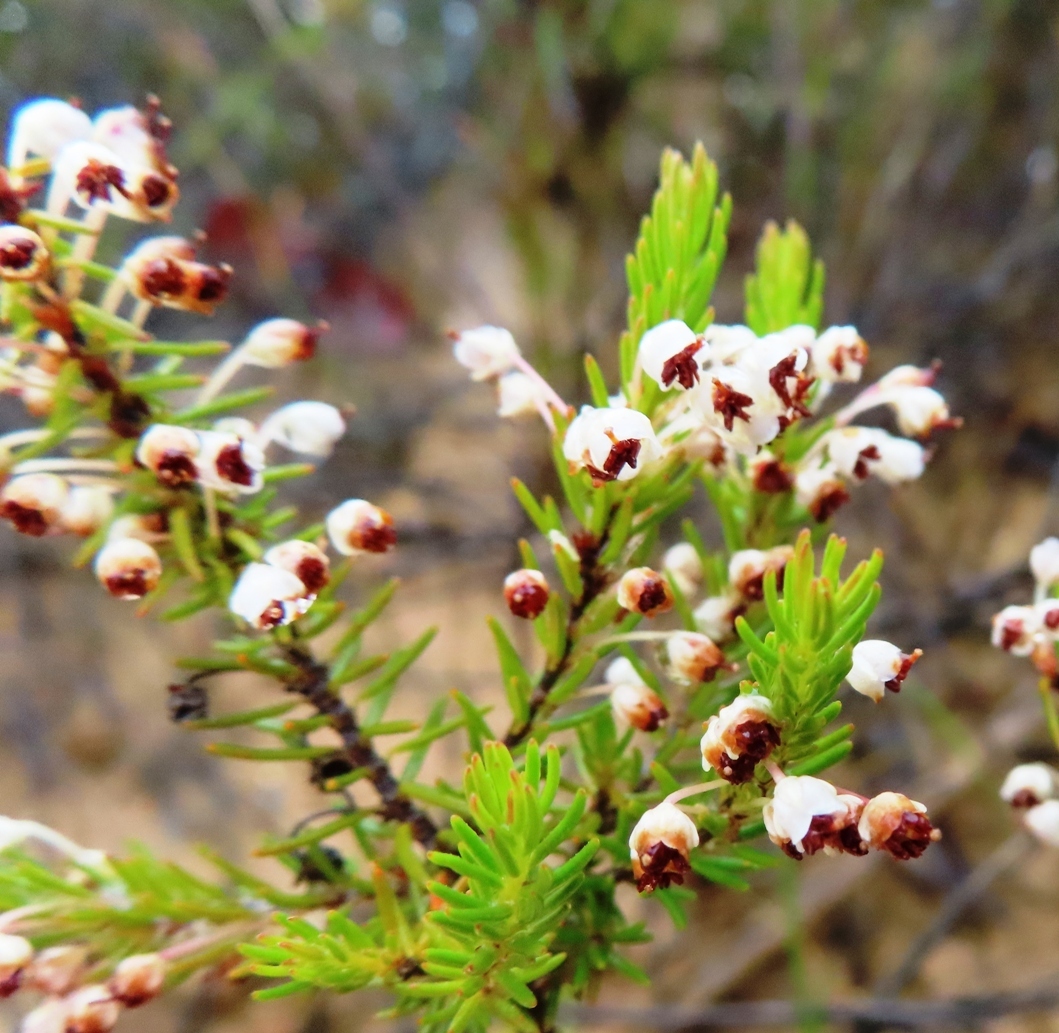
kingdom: Plantae
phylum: Tracheophyta
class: Magnoliopsida
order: Ericales
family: Ericaceae
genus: Erica
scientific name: Erica rubiginosa
